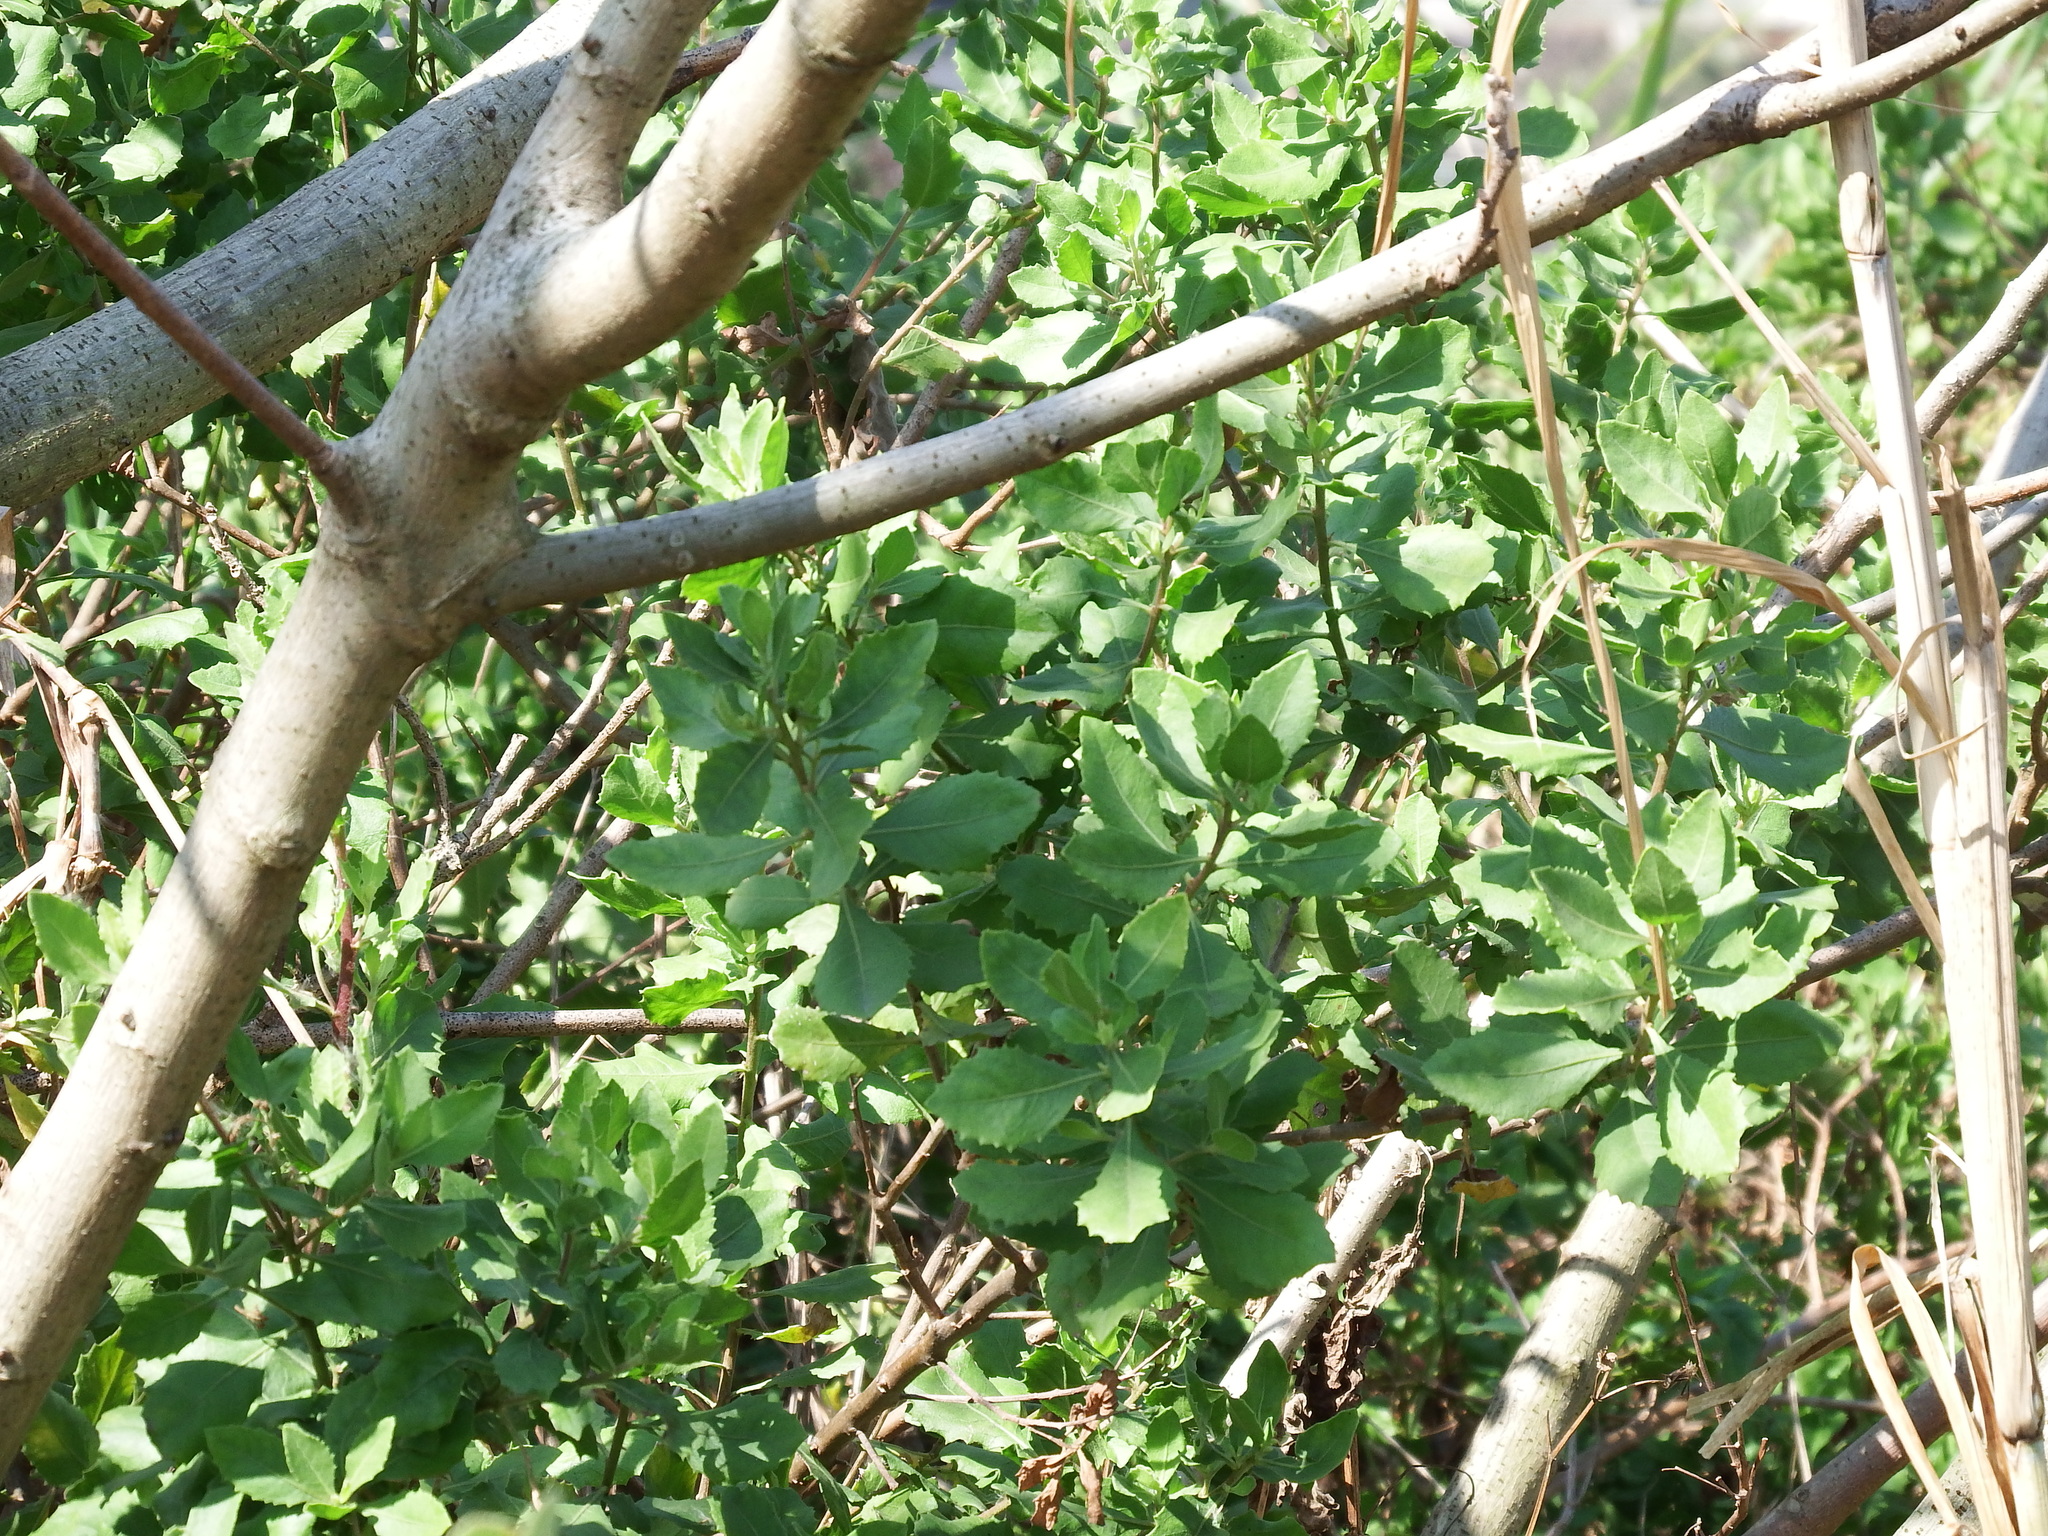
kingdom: Plantae
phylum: Tracheophyta
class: Magnoliopsida
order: Asterales
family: Asteraceae
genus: Pluchea
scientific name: Pluchea indica
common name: Indian fleabane
